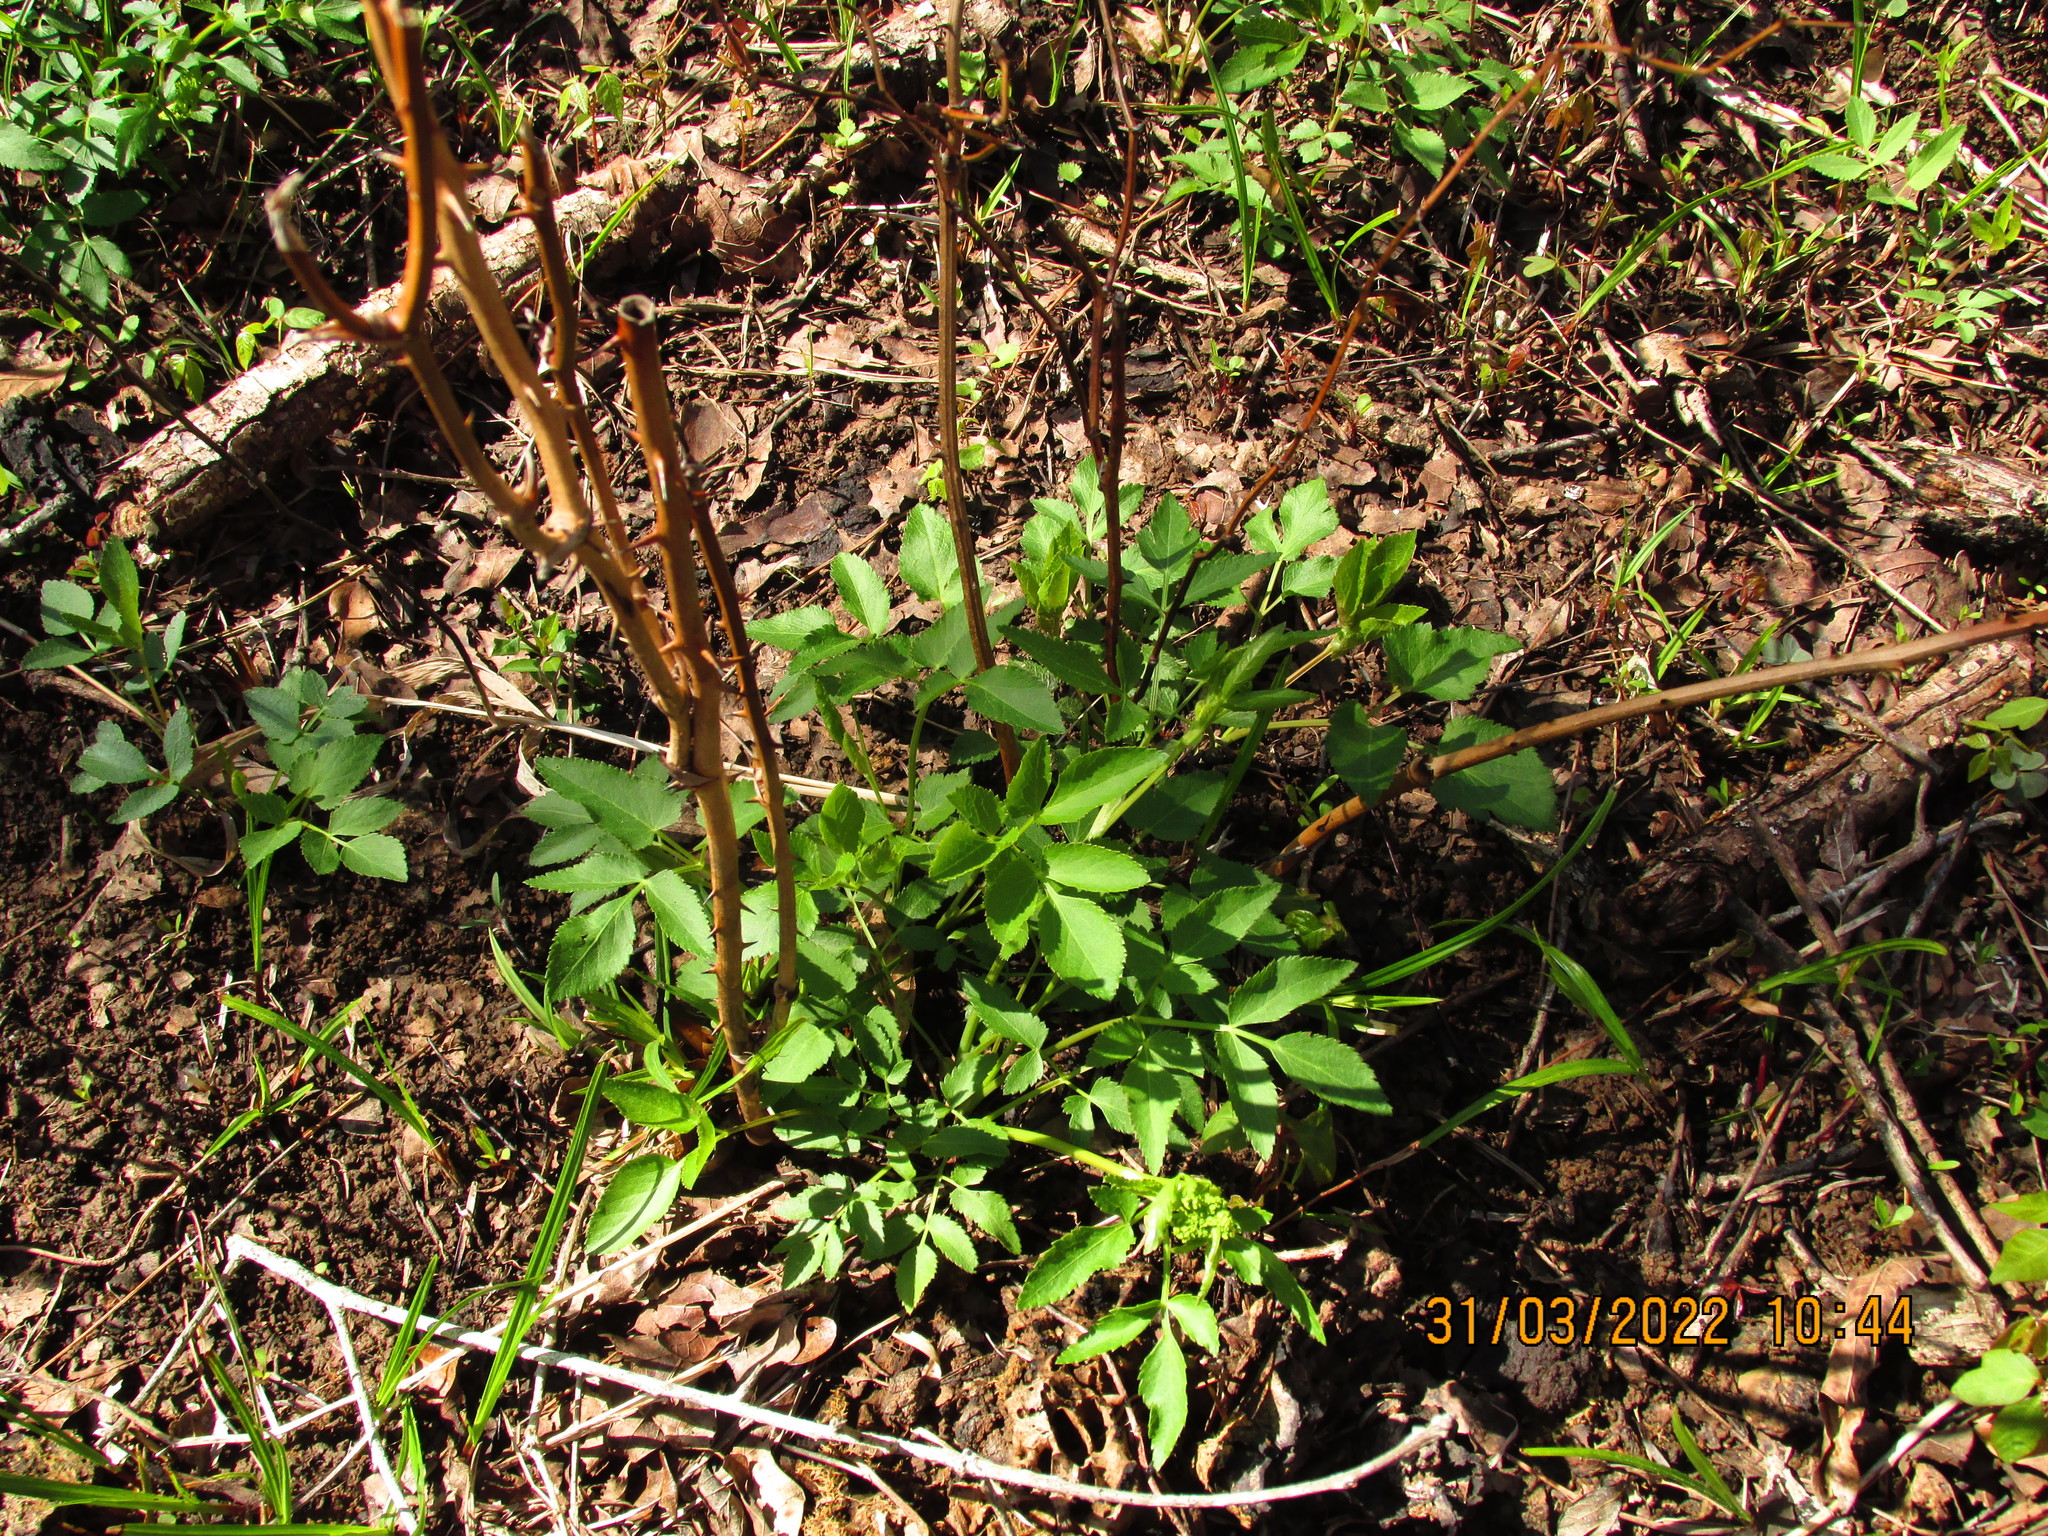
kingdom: Plantae
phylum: Tracheophyta
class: Magnoliopsida
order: Apiales
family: Apiaceae
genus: Zizia
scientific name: Zizia aurea
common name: Golden alexanders
